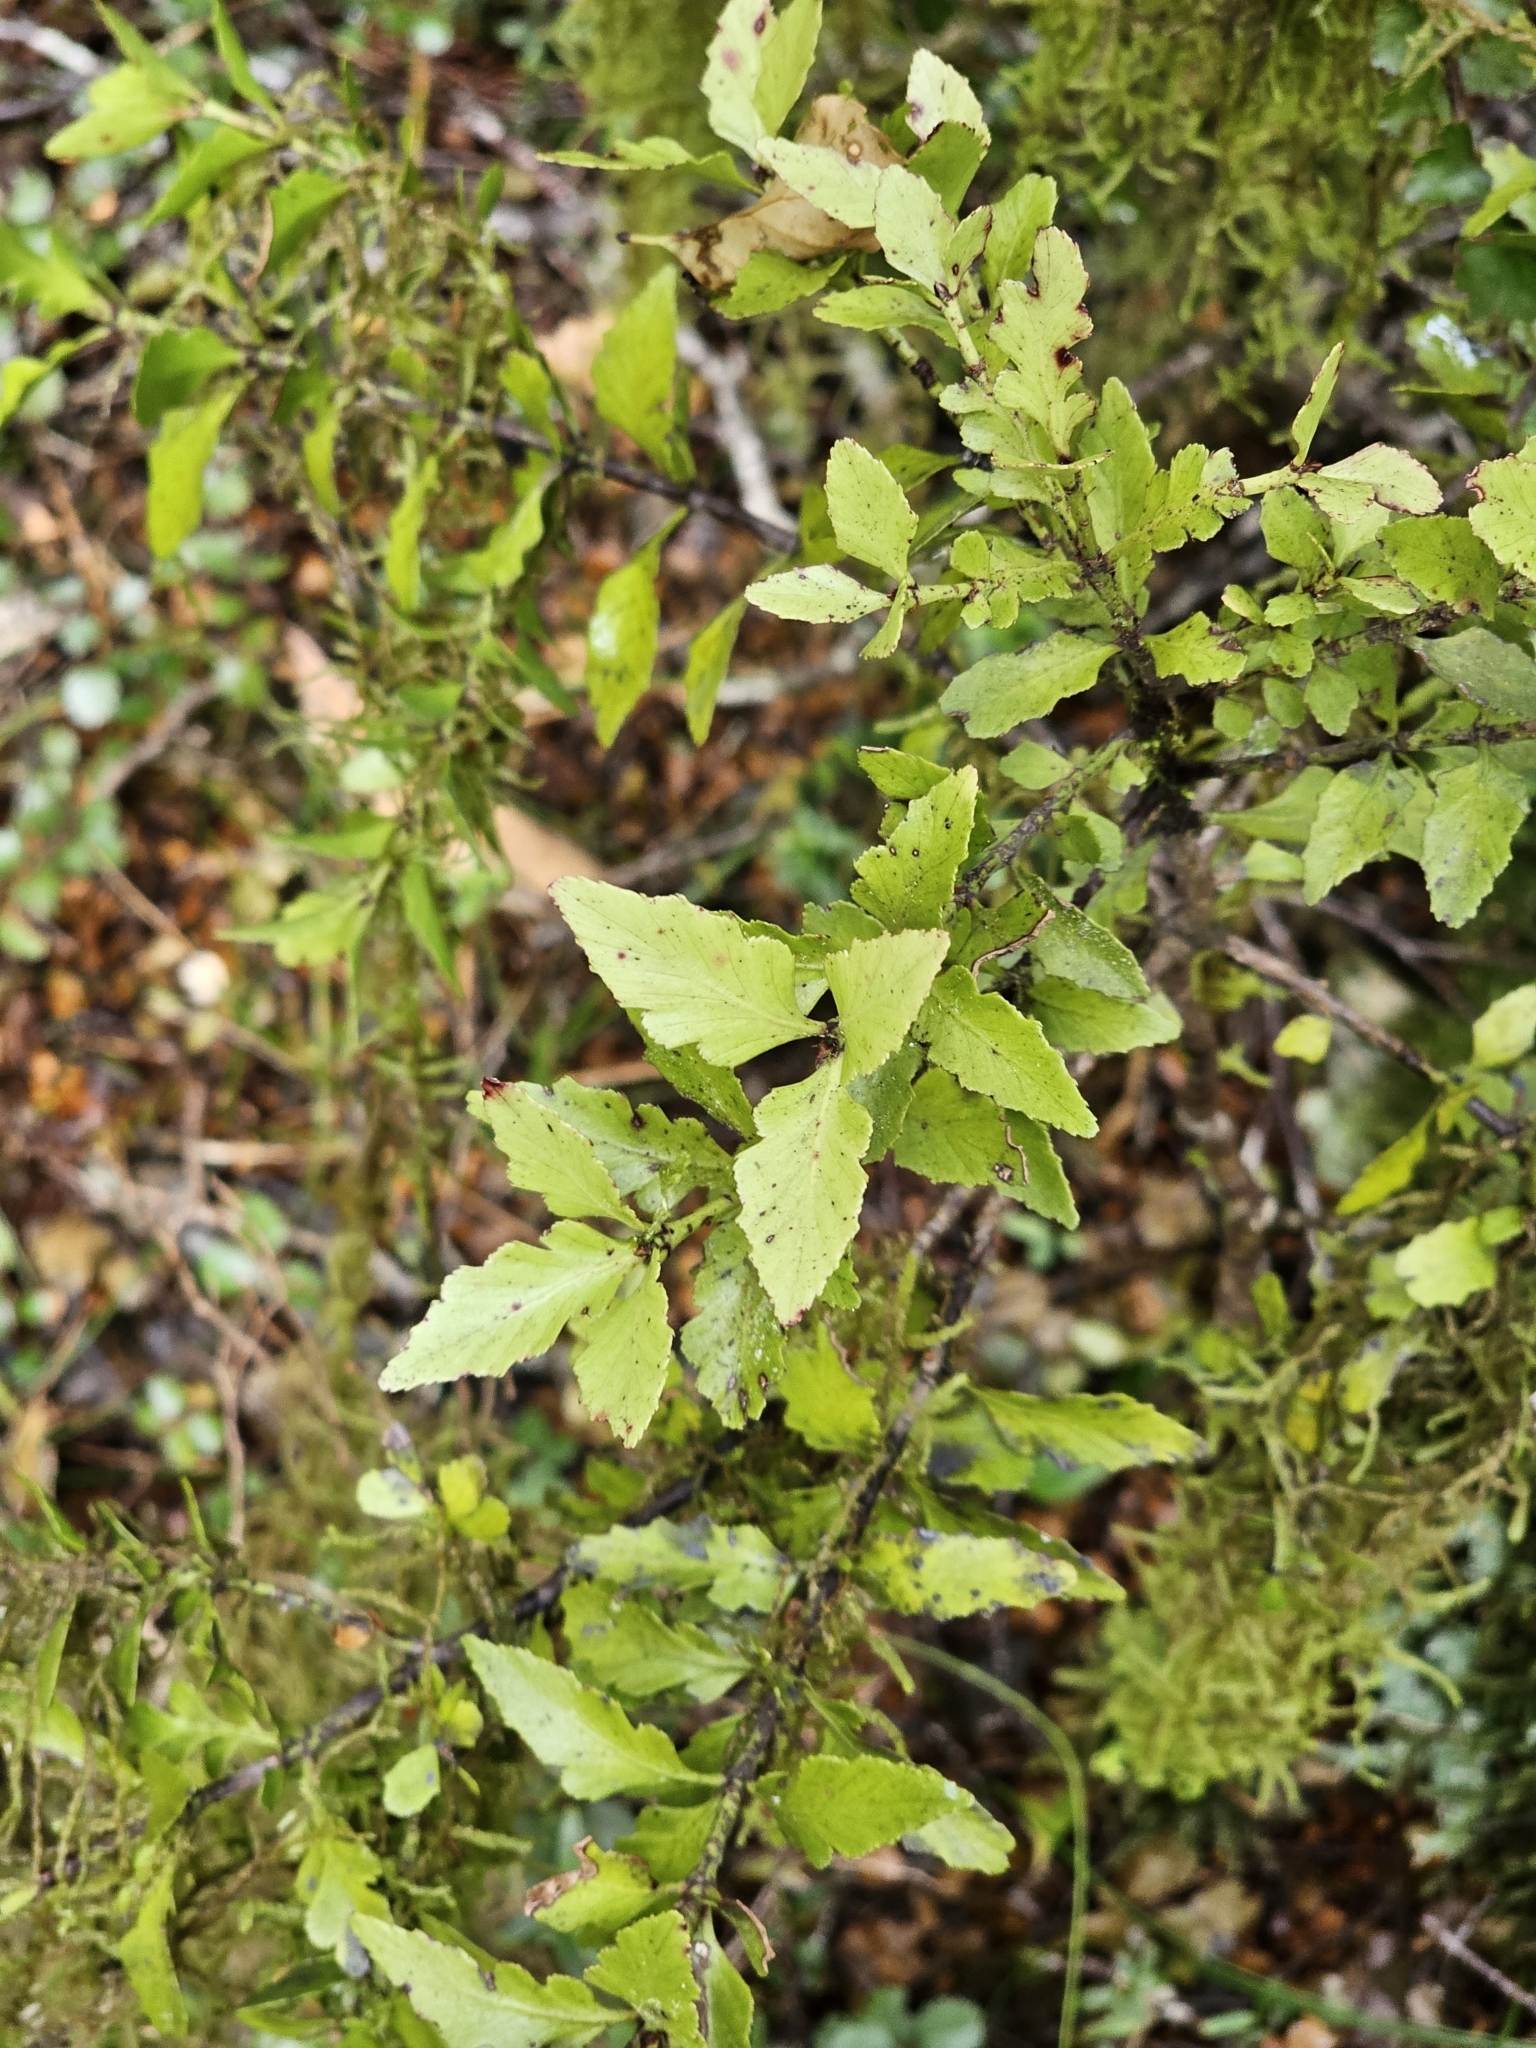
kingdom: Plantae
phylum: Tracheophyta
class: Pinopsida
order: Pinales
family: Phyllocladaceae
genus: Phyllocladus
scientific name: Phyllocladus trichomanoides
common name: Celery pine
